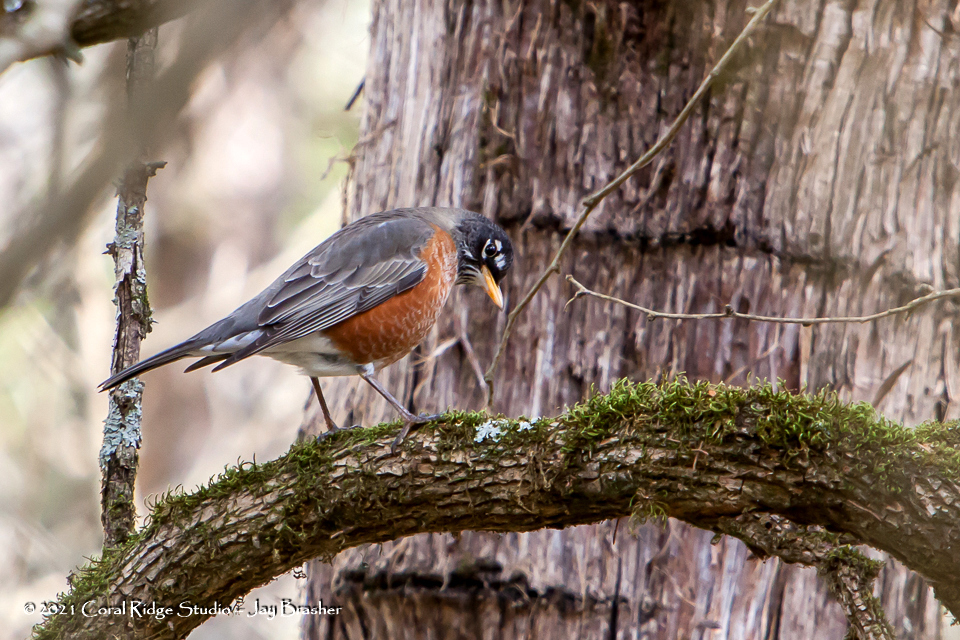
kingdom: Animalia
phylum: Chordata
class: Aves
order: Passeriformes
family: Turdidae
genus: Turdus
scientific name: Turdus migratorius
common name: American robin
